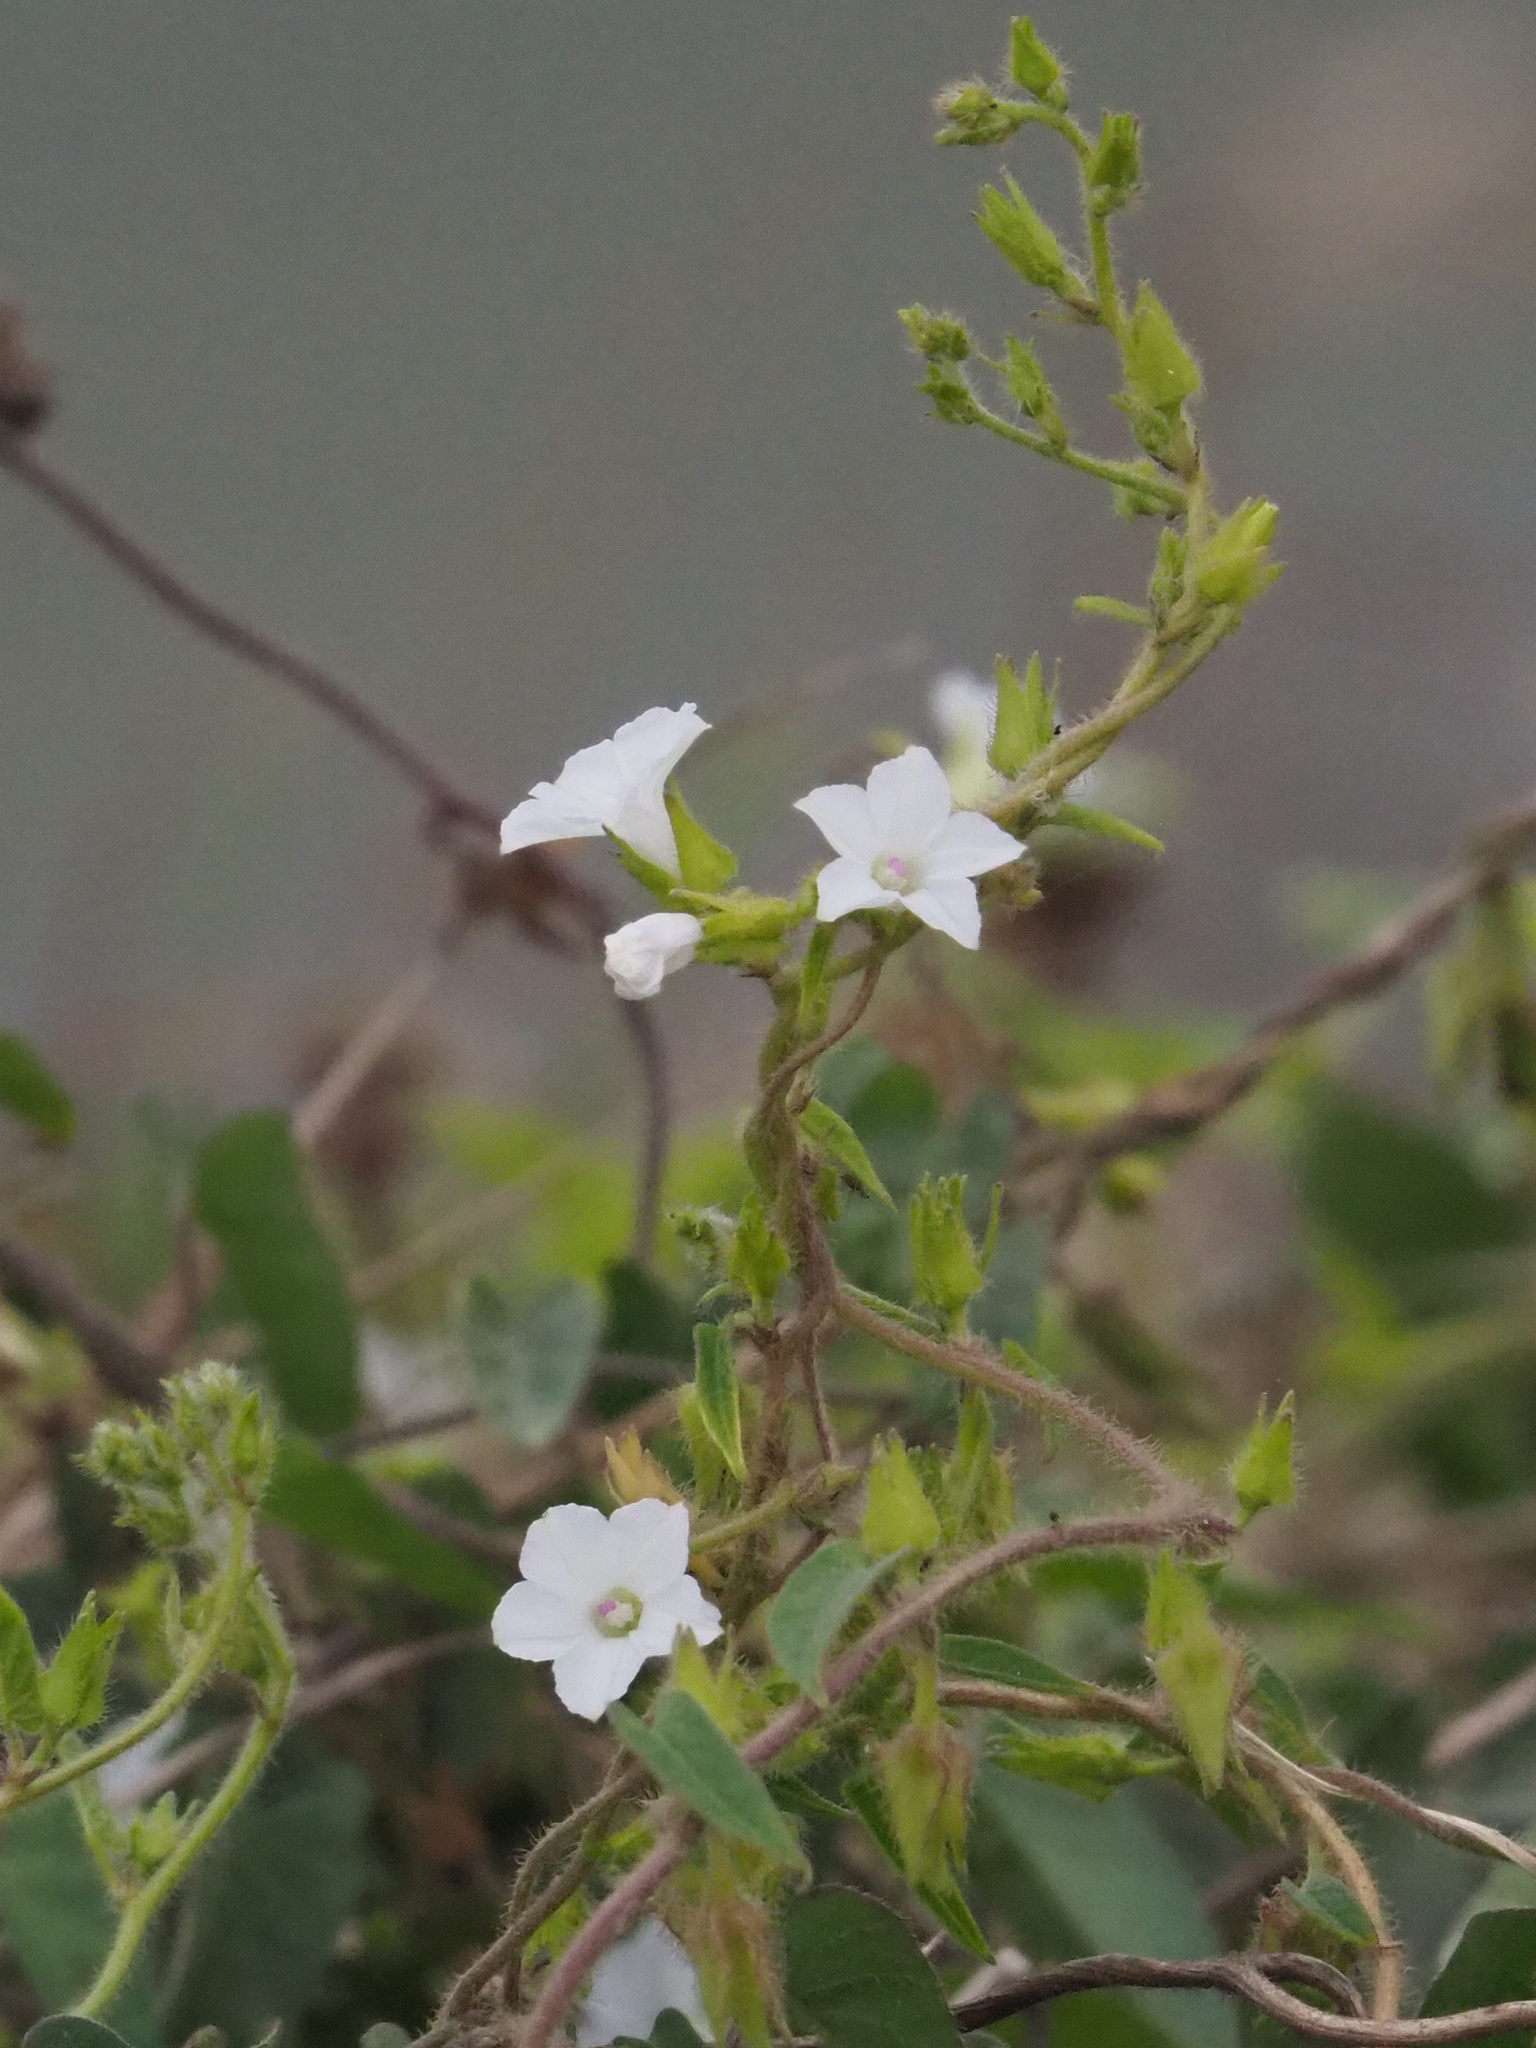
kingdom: Plantae
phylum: Tracheophyta
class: Magnoliopsida
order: Solanales
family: Convolvulaceae
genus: Ipomoea
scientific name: Ipomoea biflora
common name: Bellvine
